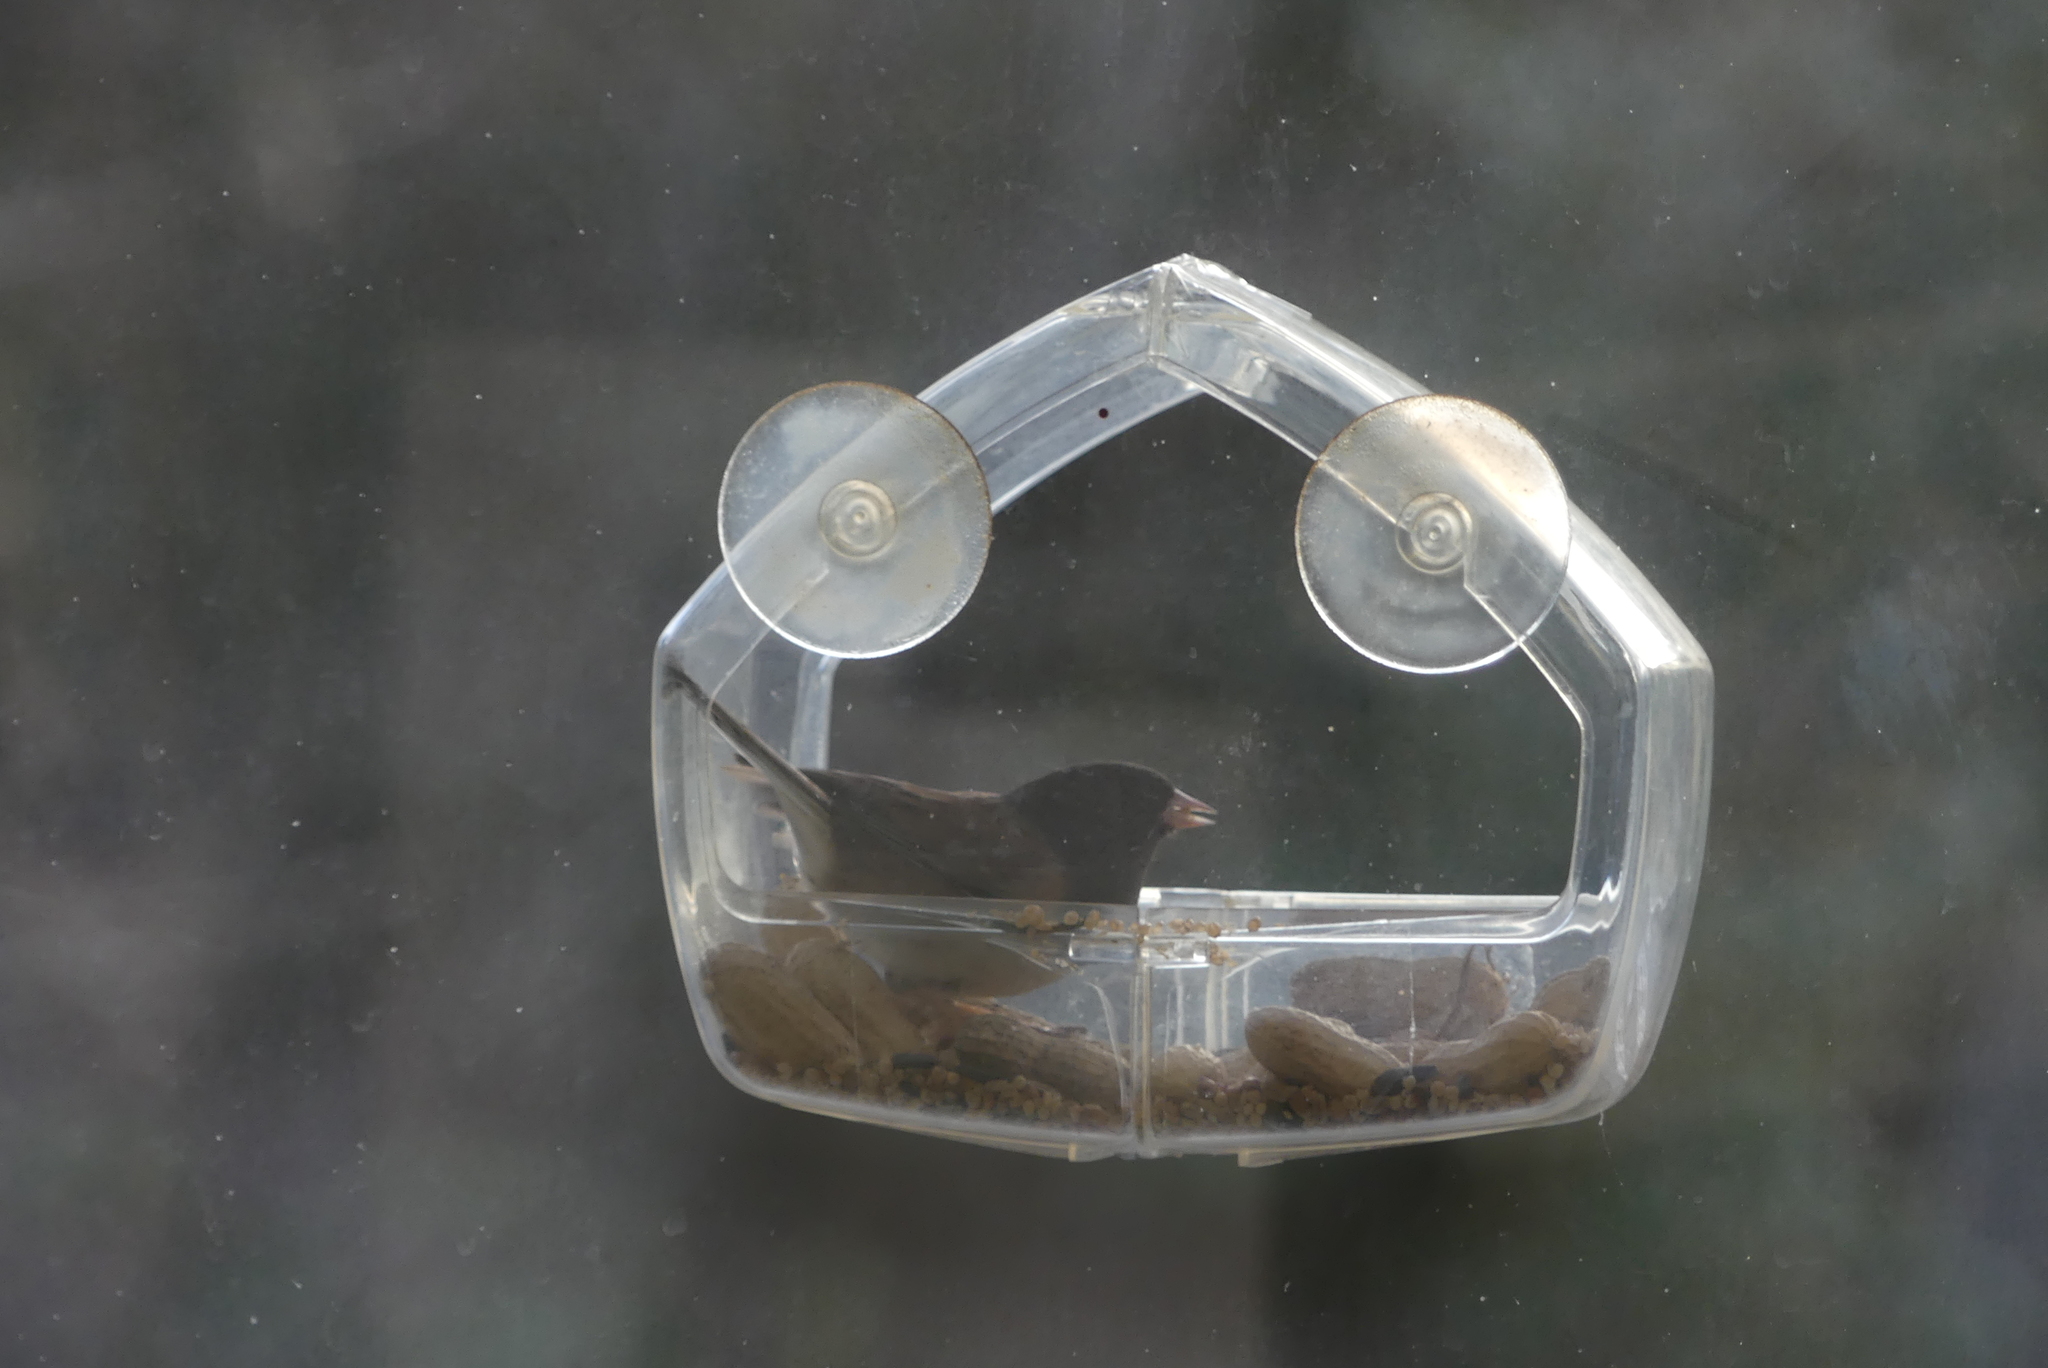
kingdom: Animalia
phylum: Chordata
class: Aves
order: Passeriformes
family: Passerellidae
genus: Junco
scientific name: Junco hyemalis
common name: Dark-eyed junco
